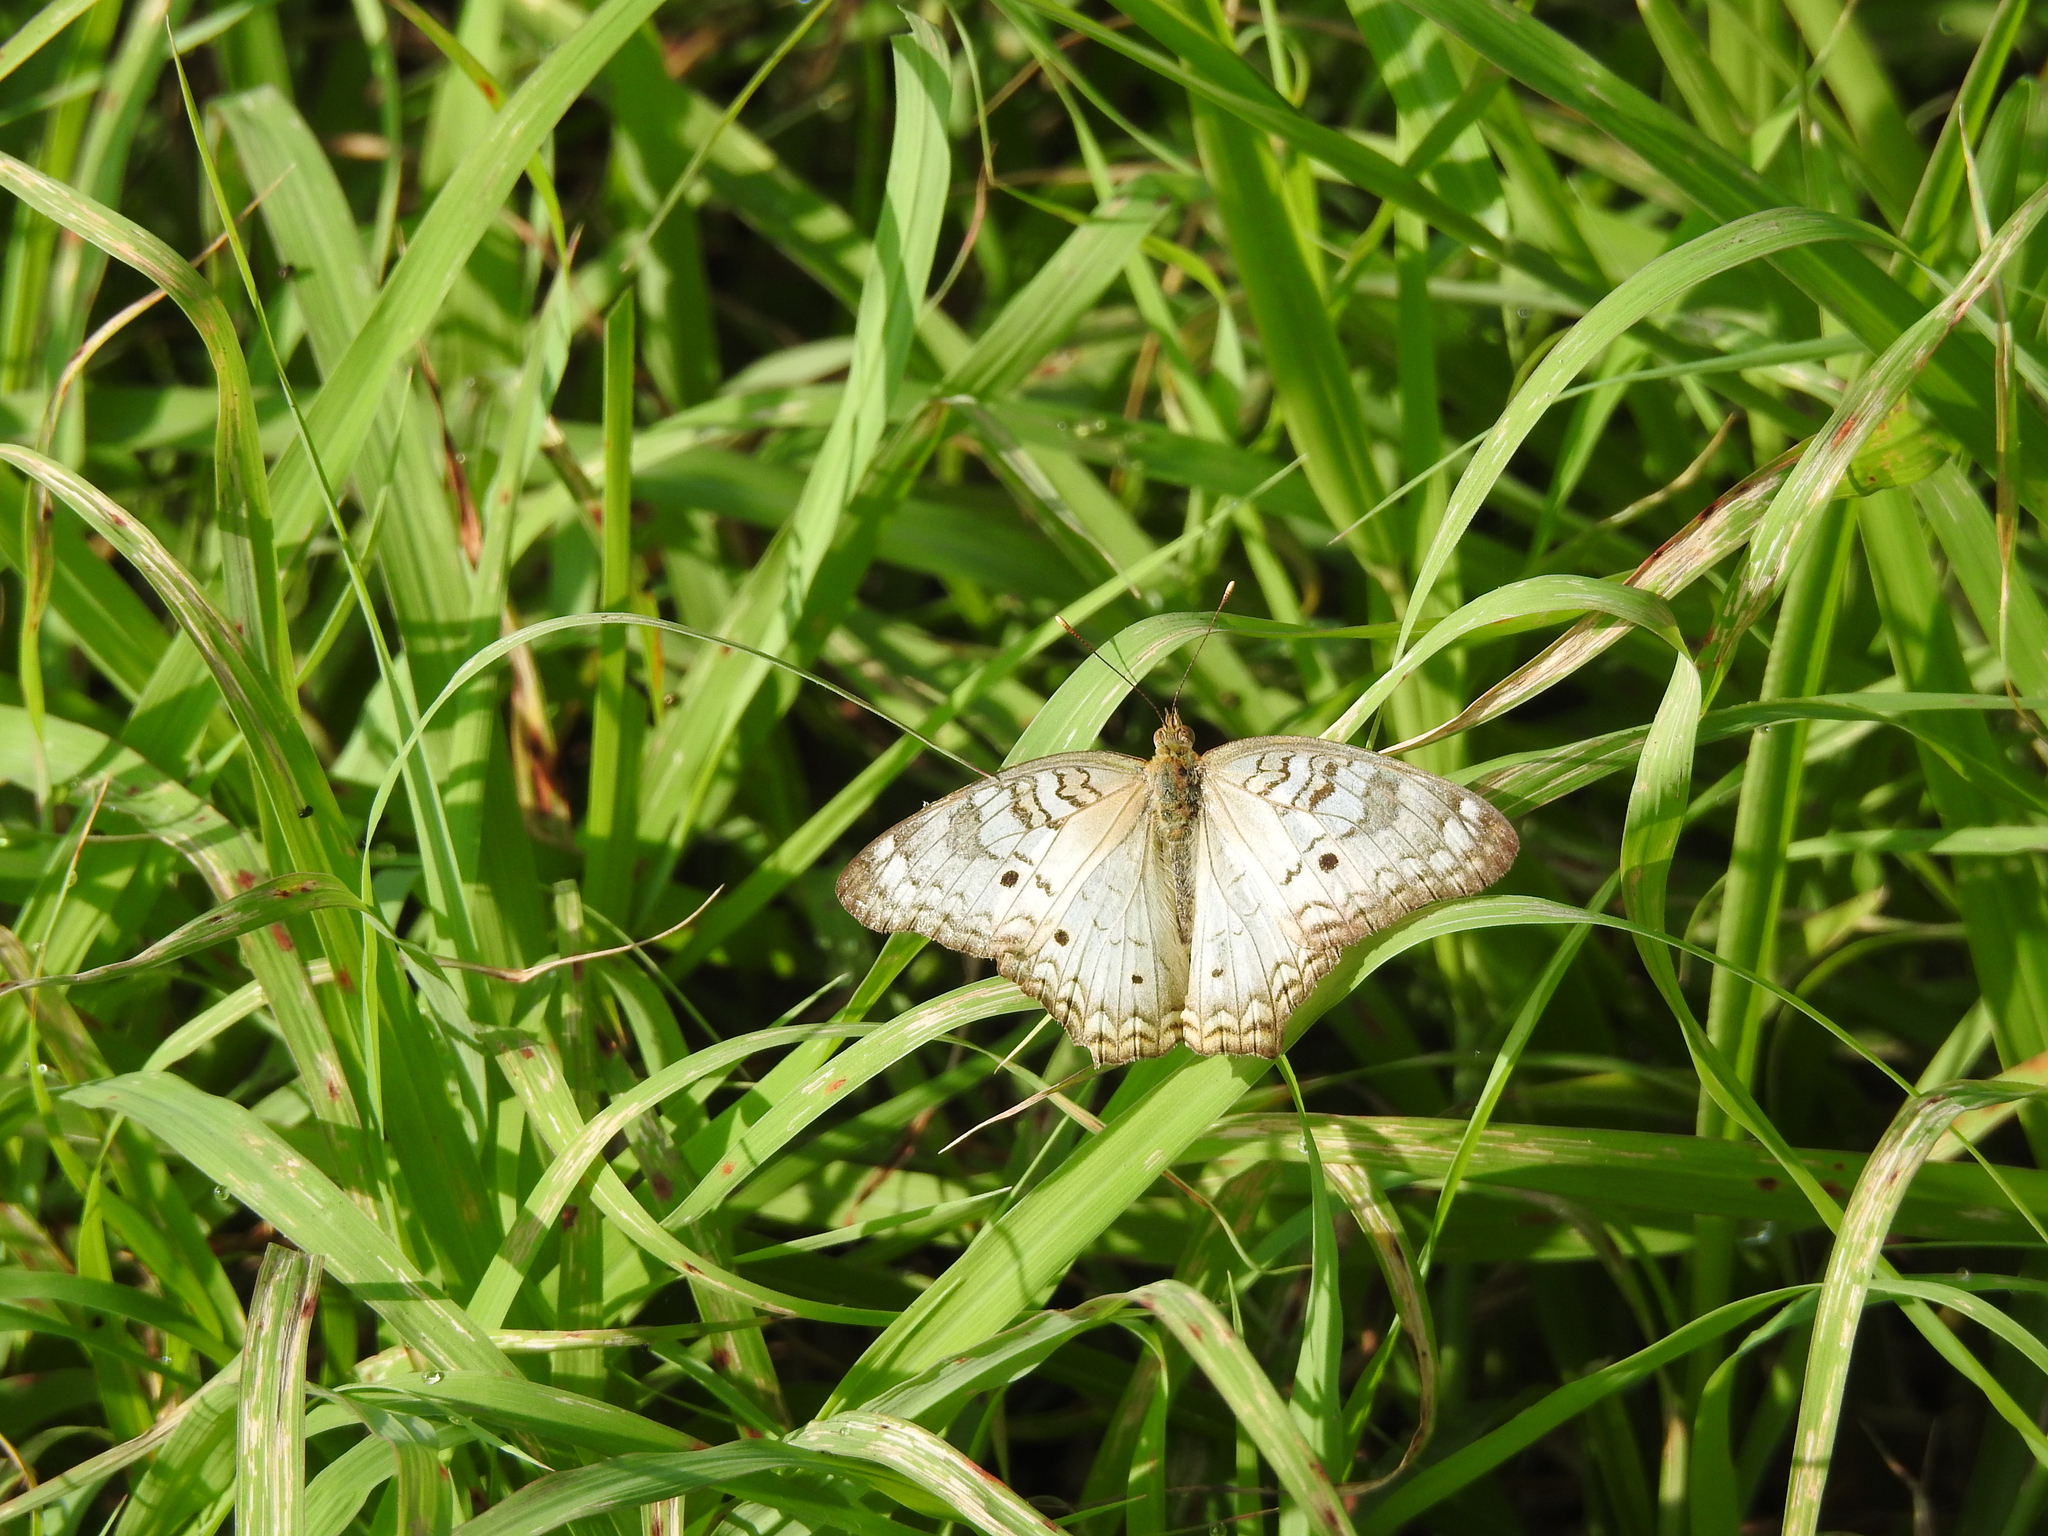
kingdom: Animalia
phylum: Arthropoda
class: Insecta
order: Lepidoptera
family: Nymphalidae
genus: Anartia
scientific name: Anartia jatrophae
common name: White peacock
